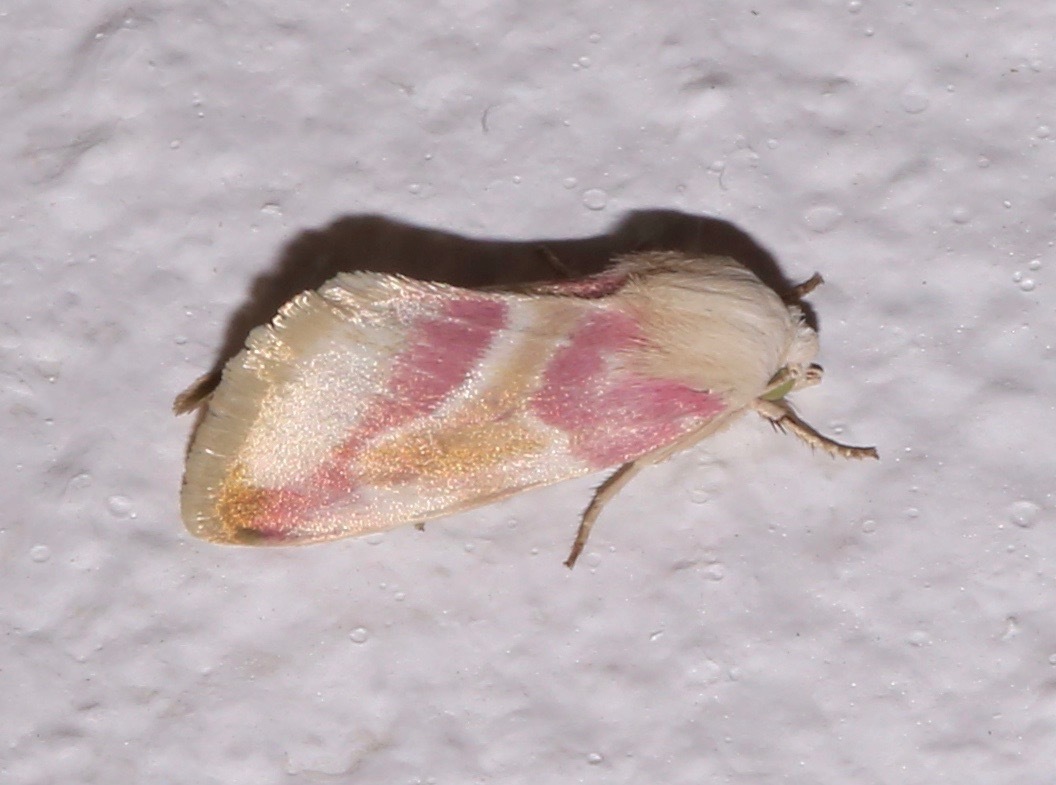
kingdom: Animalia
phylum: Arthropoda
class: Insecta
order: Lepidoptera
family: Noctuidae
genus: Schinia
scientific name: Schinia regina
